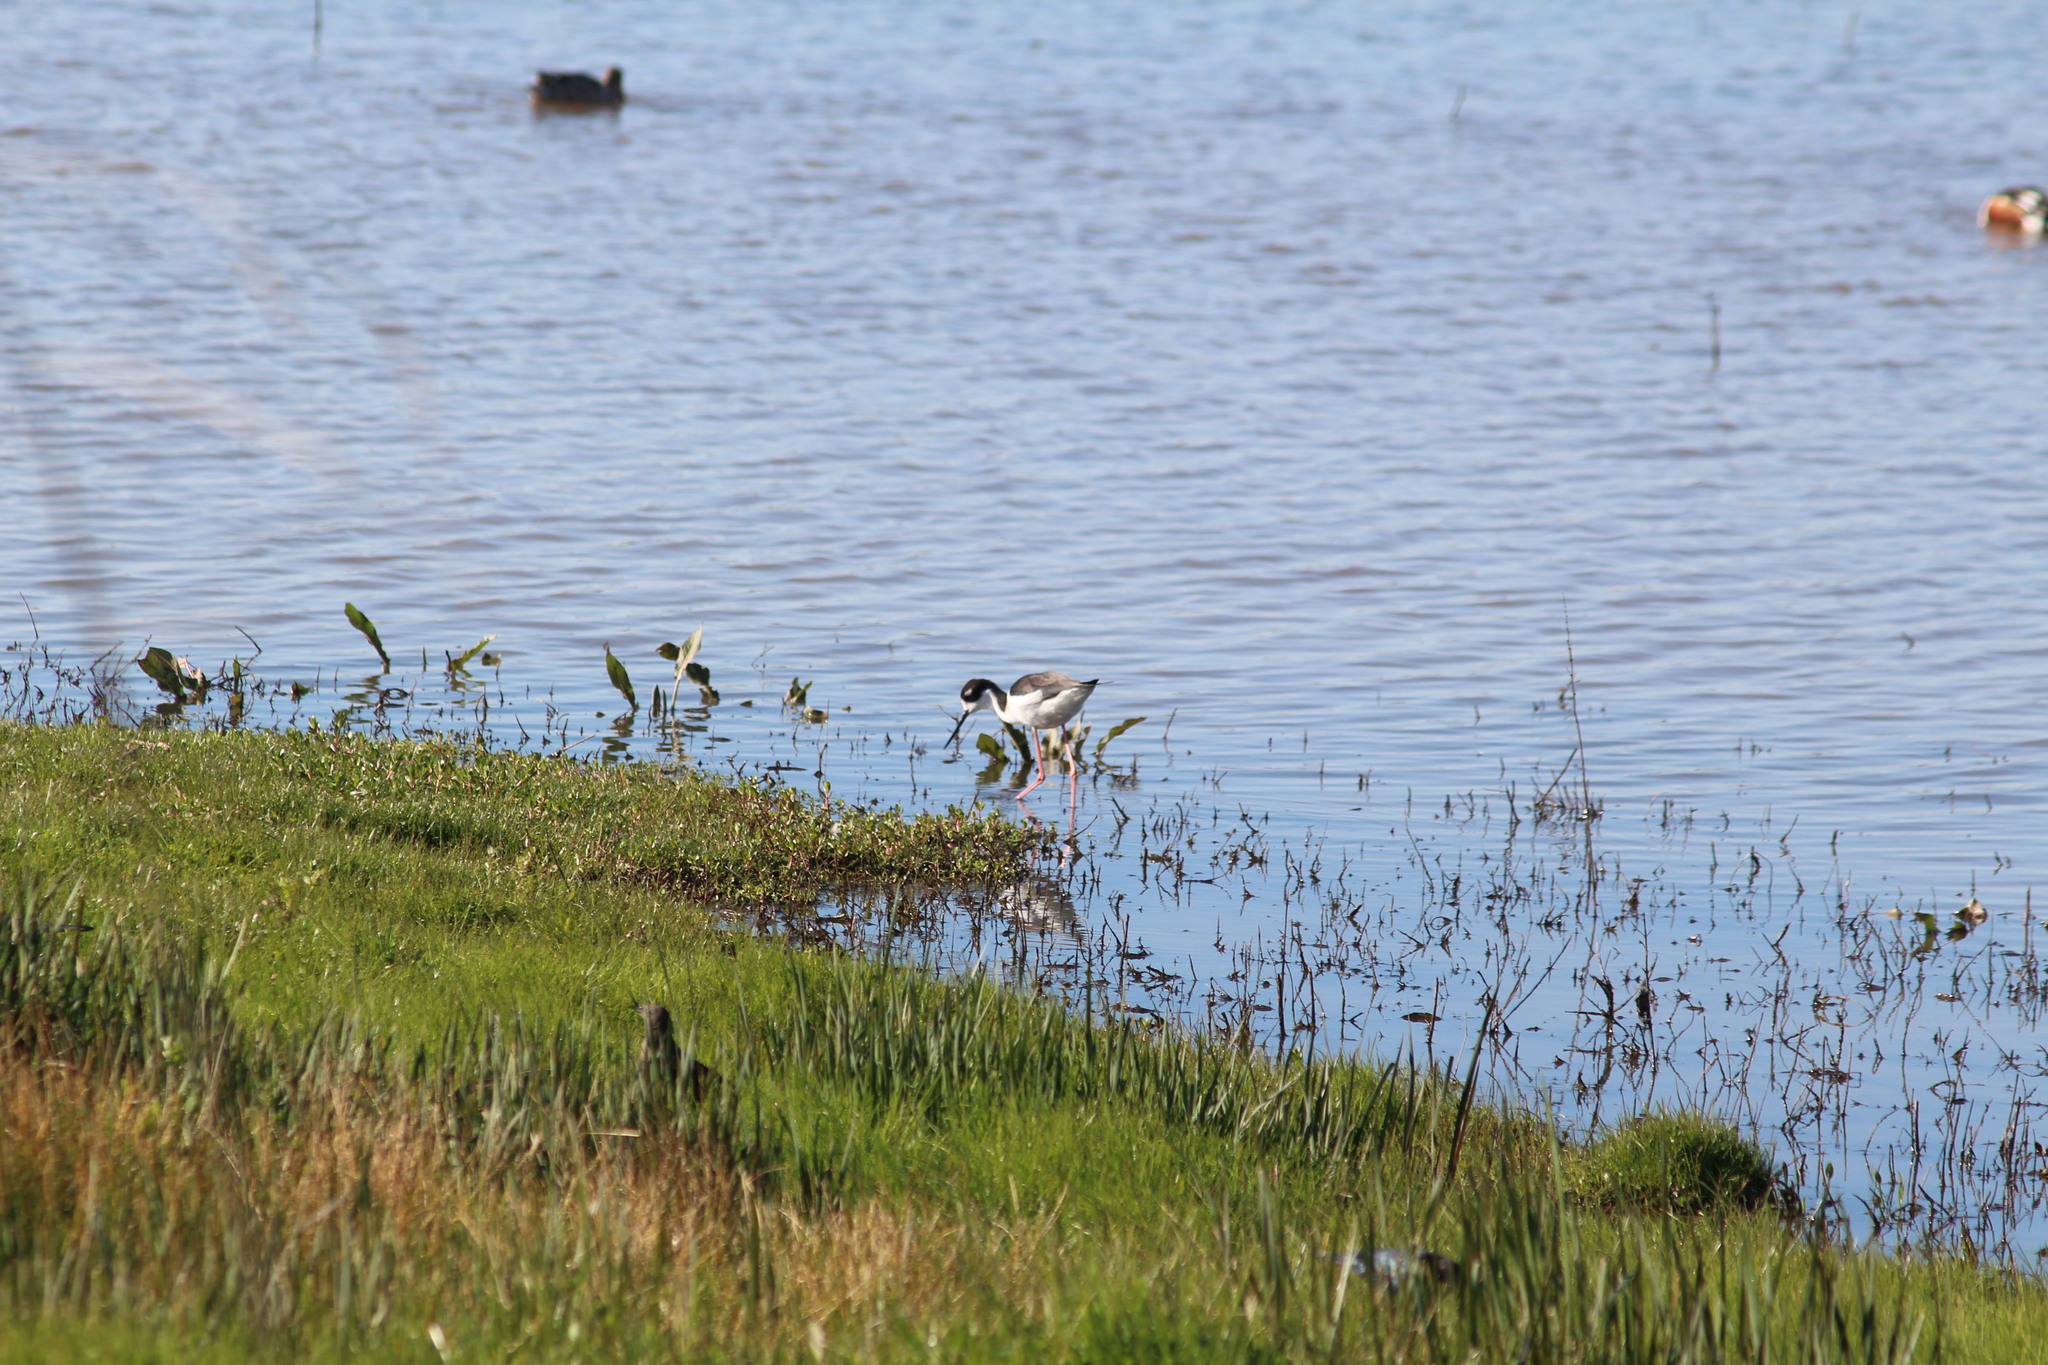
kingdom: Animalia
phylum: Chordata
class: Aves
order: Charadriiformes
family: Recurvirostridae
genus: Himantopus
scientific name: Himantopus mexicanus
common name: Black-necked stilt
